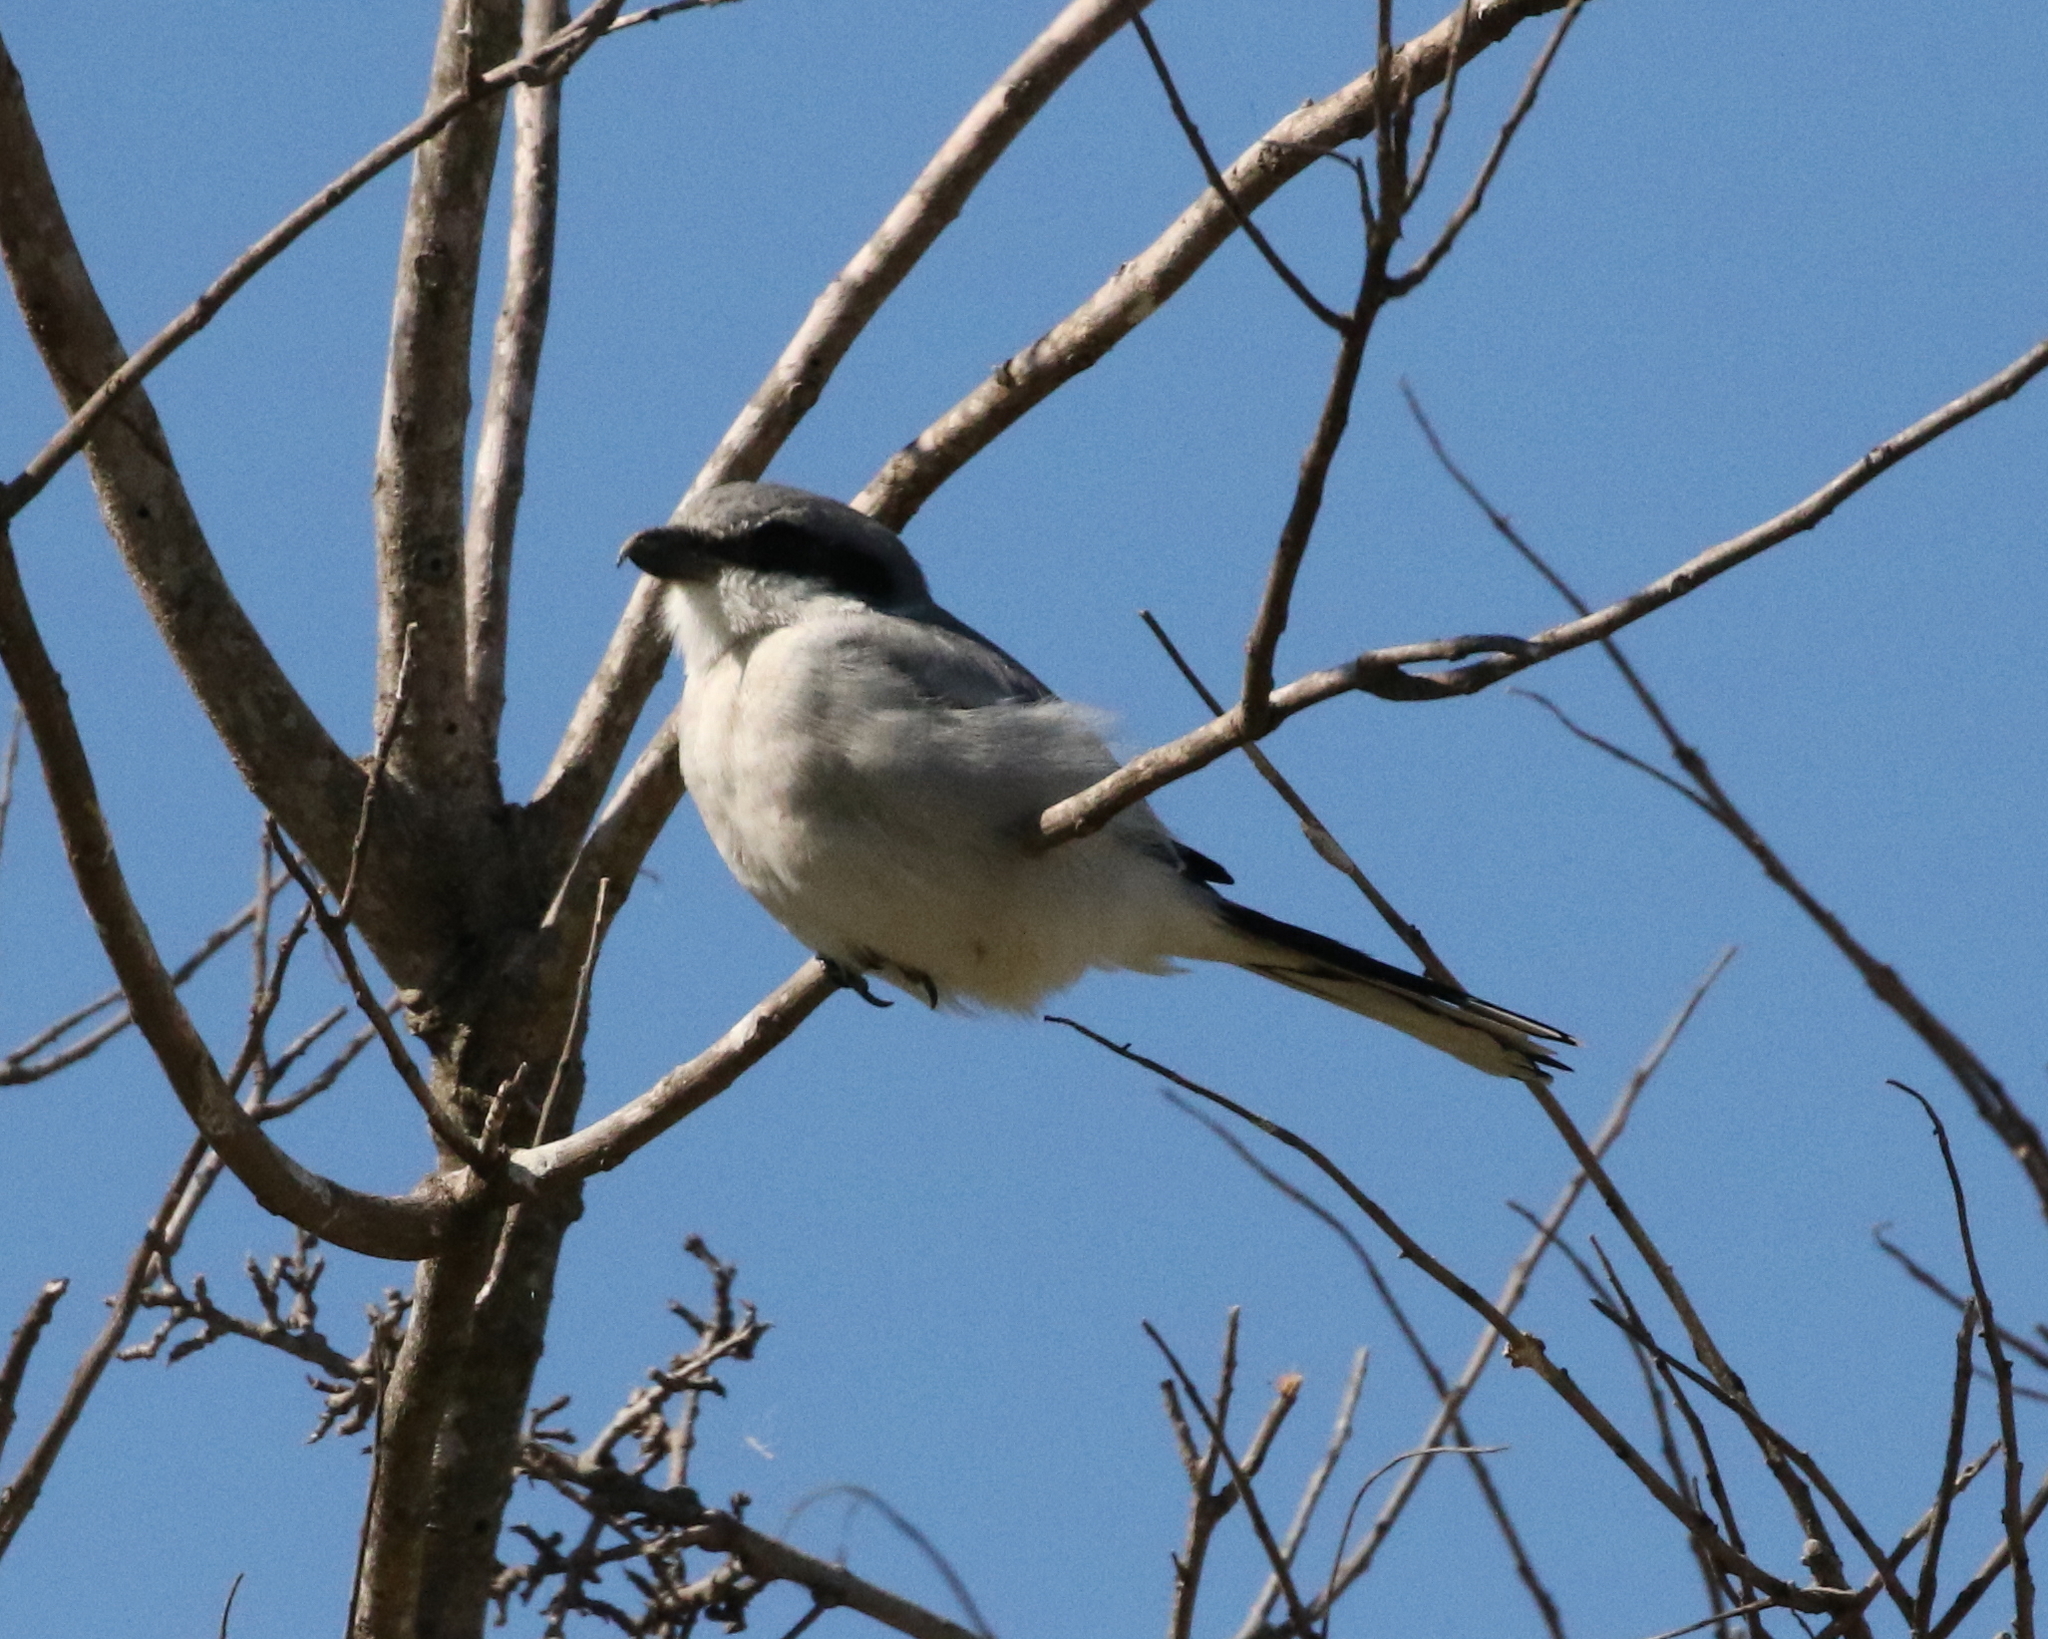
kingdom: Animalia
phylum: Chordata
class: Aves
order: Passeriformes
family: Laniidae
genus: Lanius
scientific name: Lanius ludovicianus
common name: Loggerhead shrike
